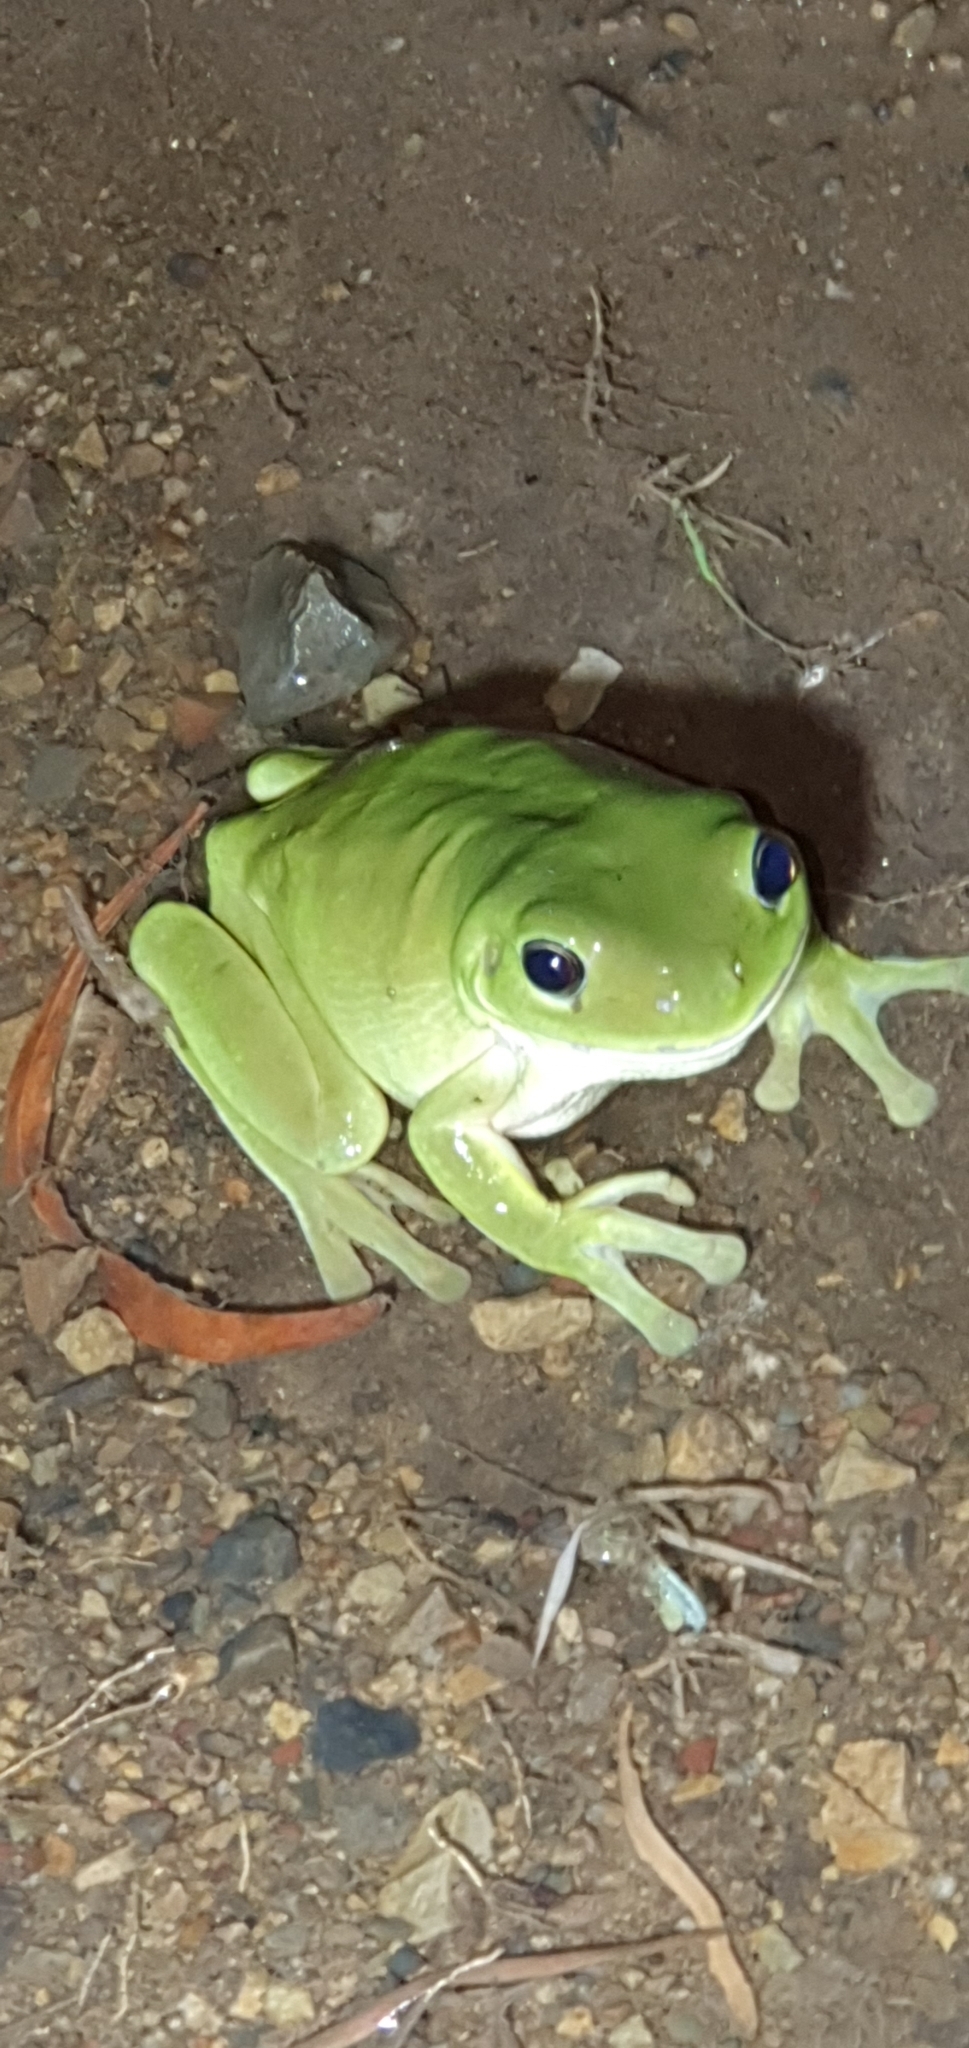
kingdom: Animalia
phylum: Chordata
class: Amphibia
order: Anura
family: Pelodryadidae
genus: Ranoidea
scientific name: Ranoidea caerulea
